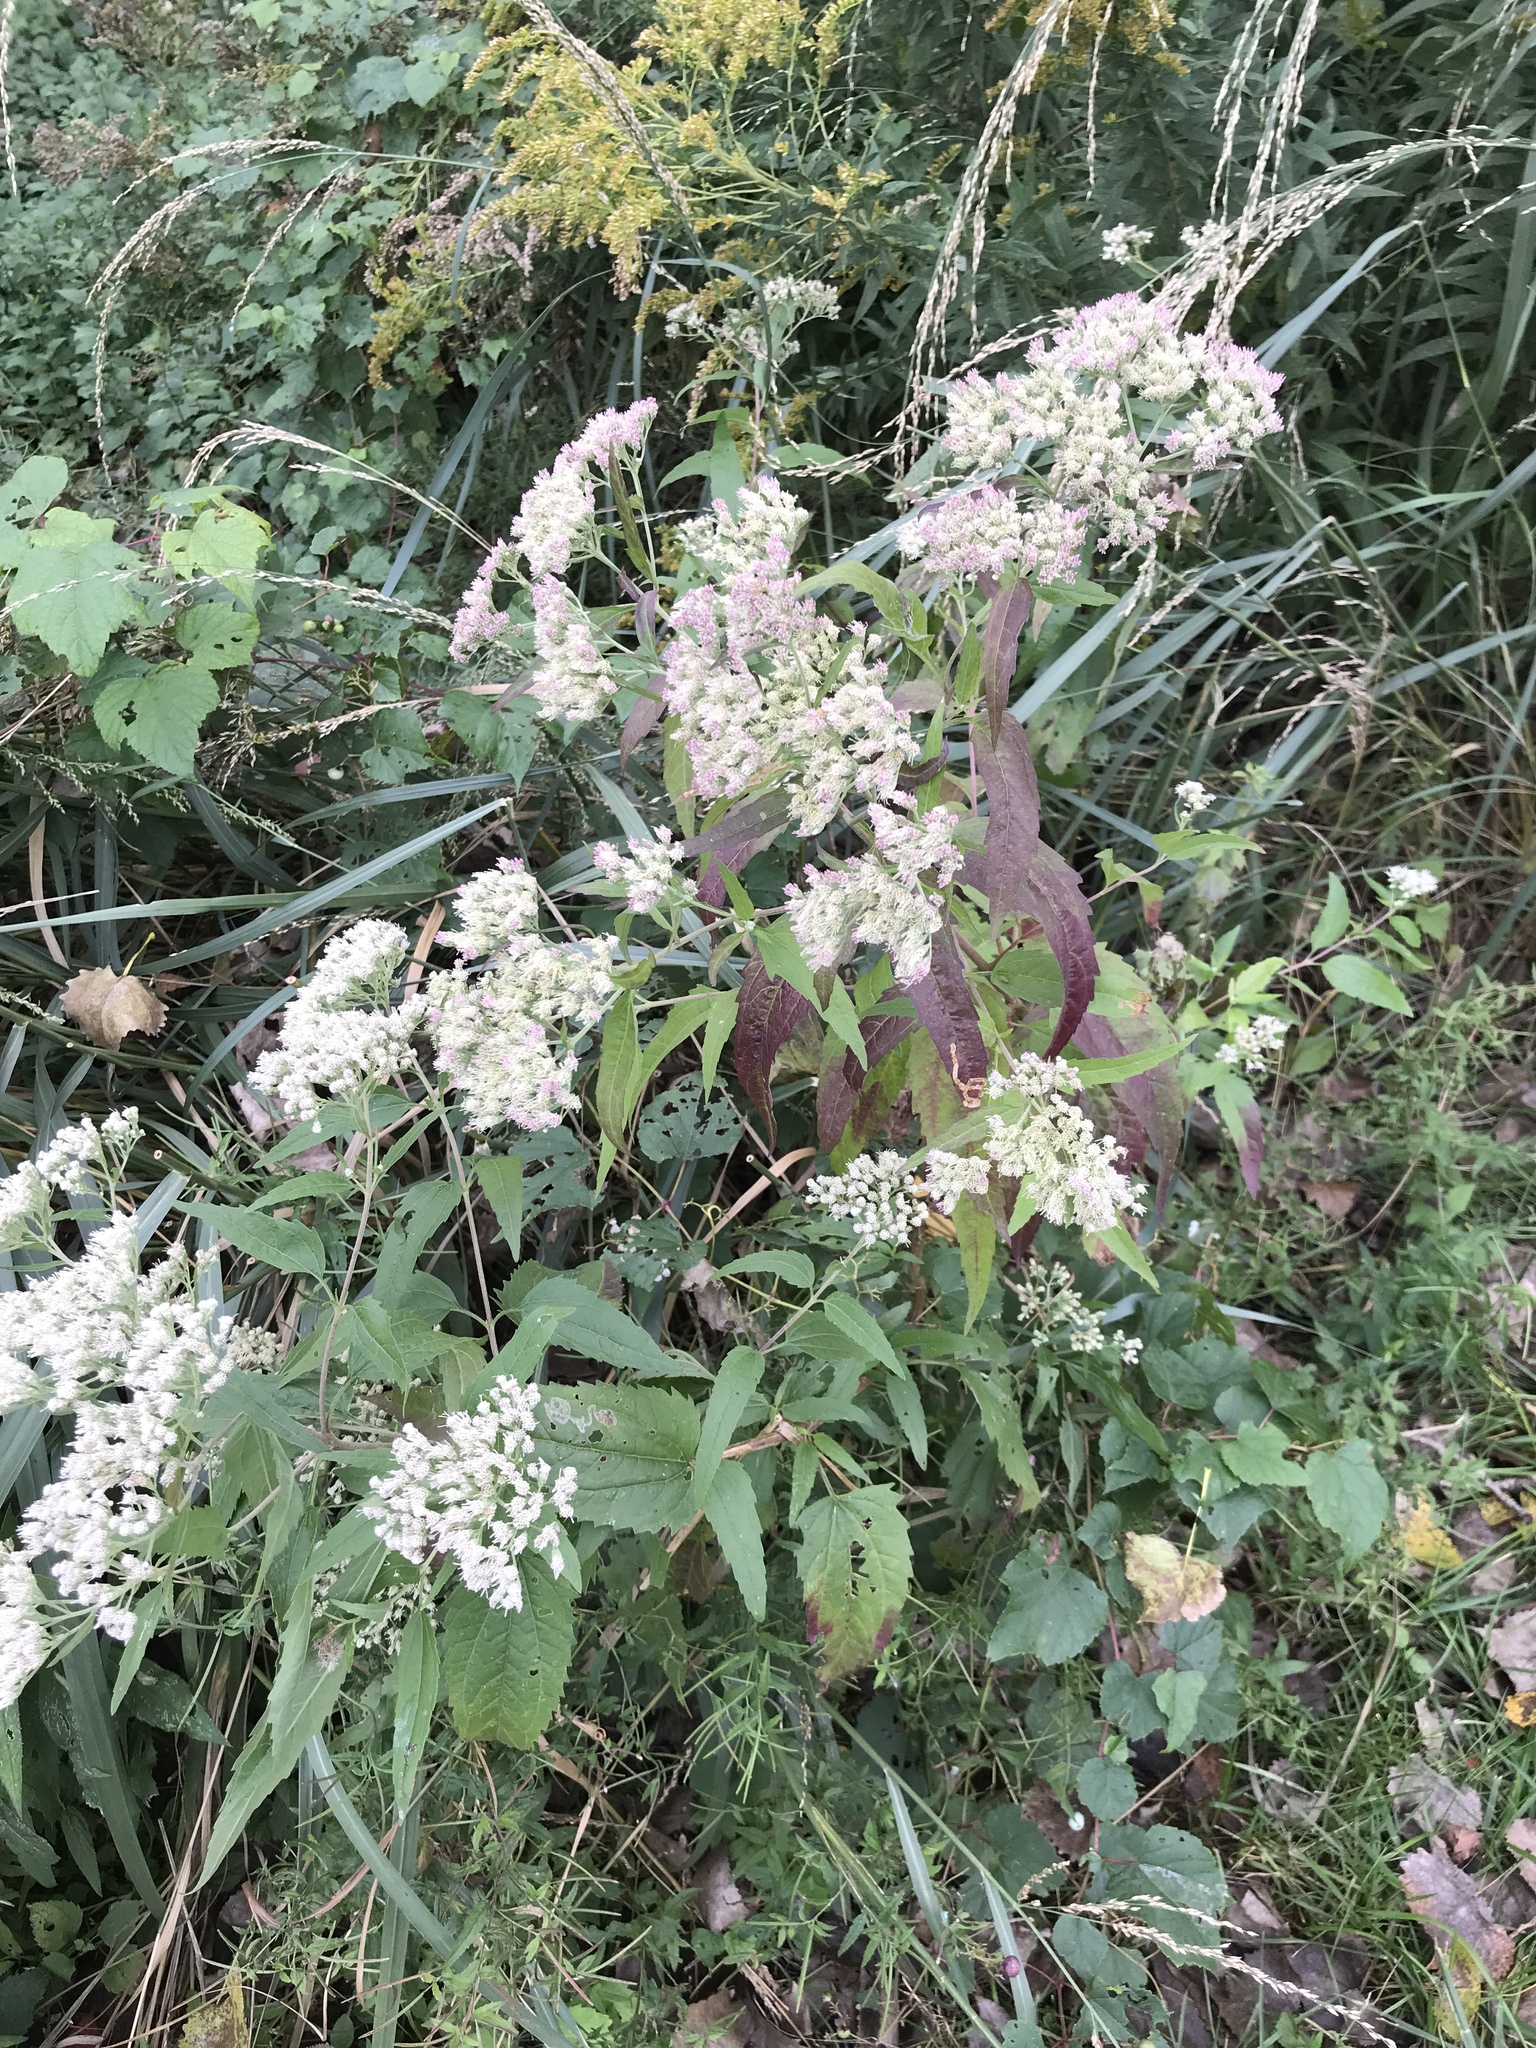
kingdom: Plantae
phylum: Tracheophyta
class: Magnoliopsida
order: Asterales
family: Asteraceae
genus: Eupatorium
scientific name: Eupatorium serotinum
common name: Late boneset
